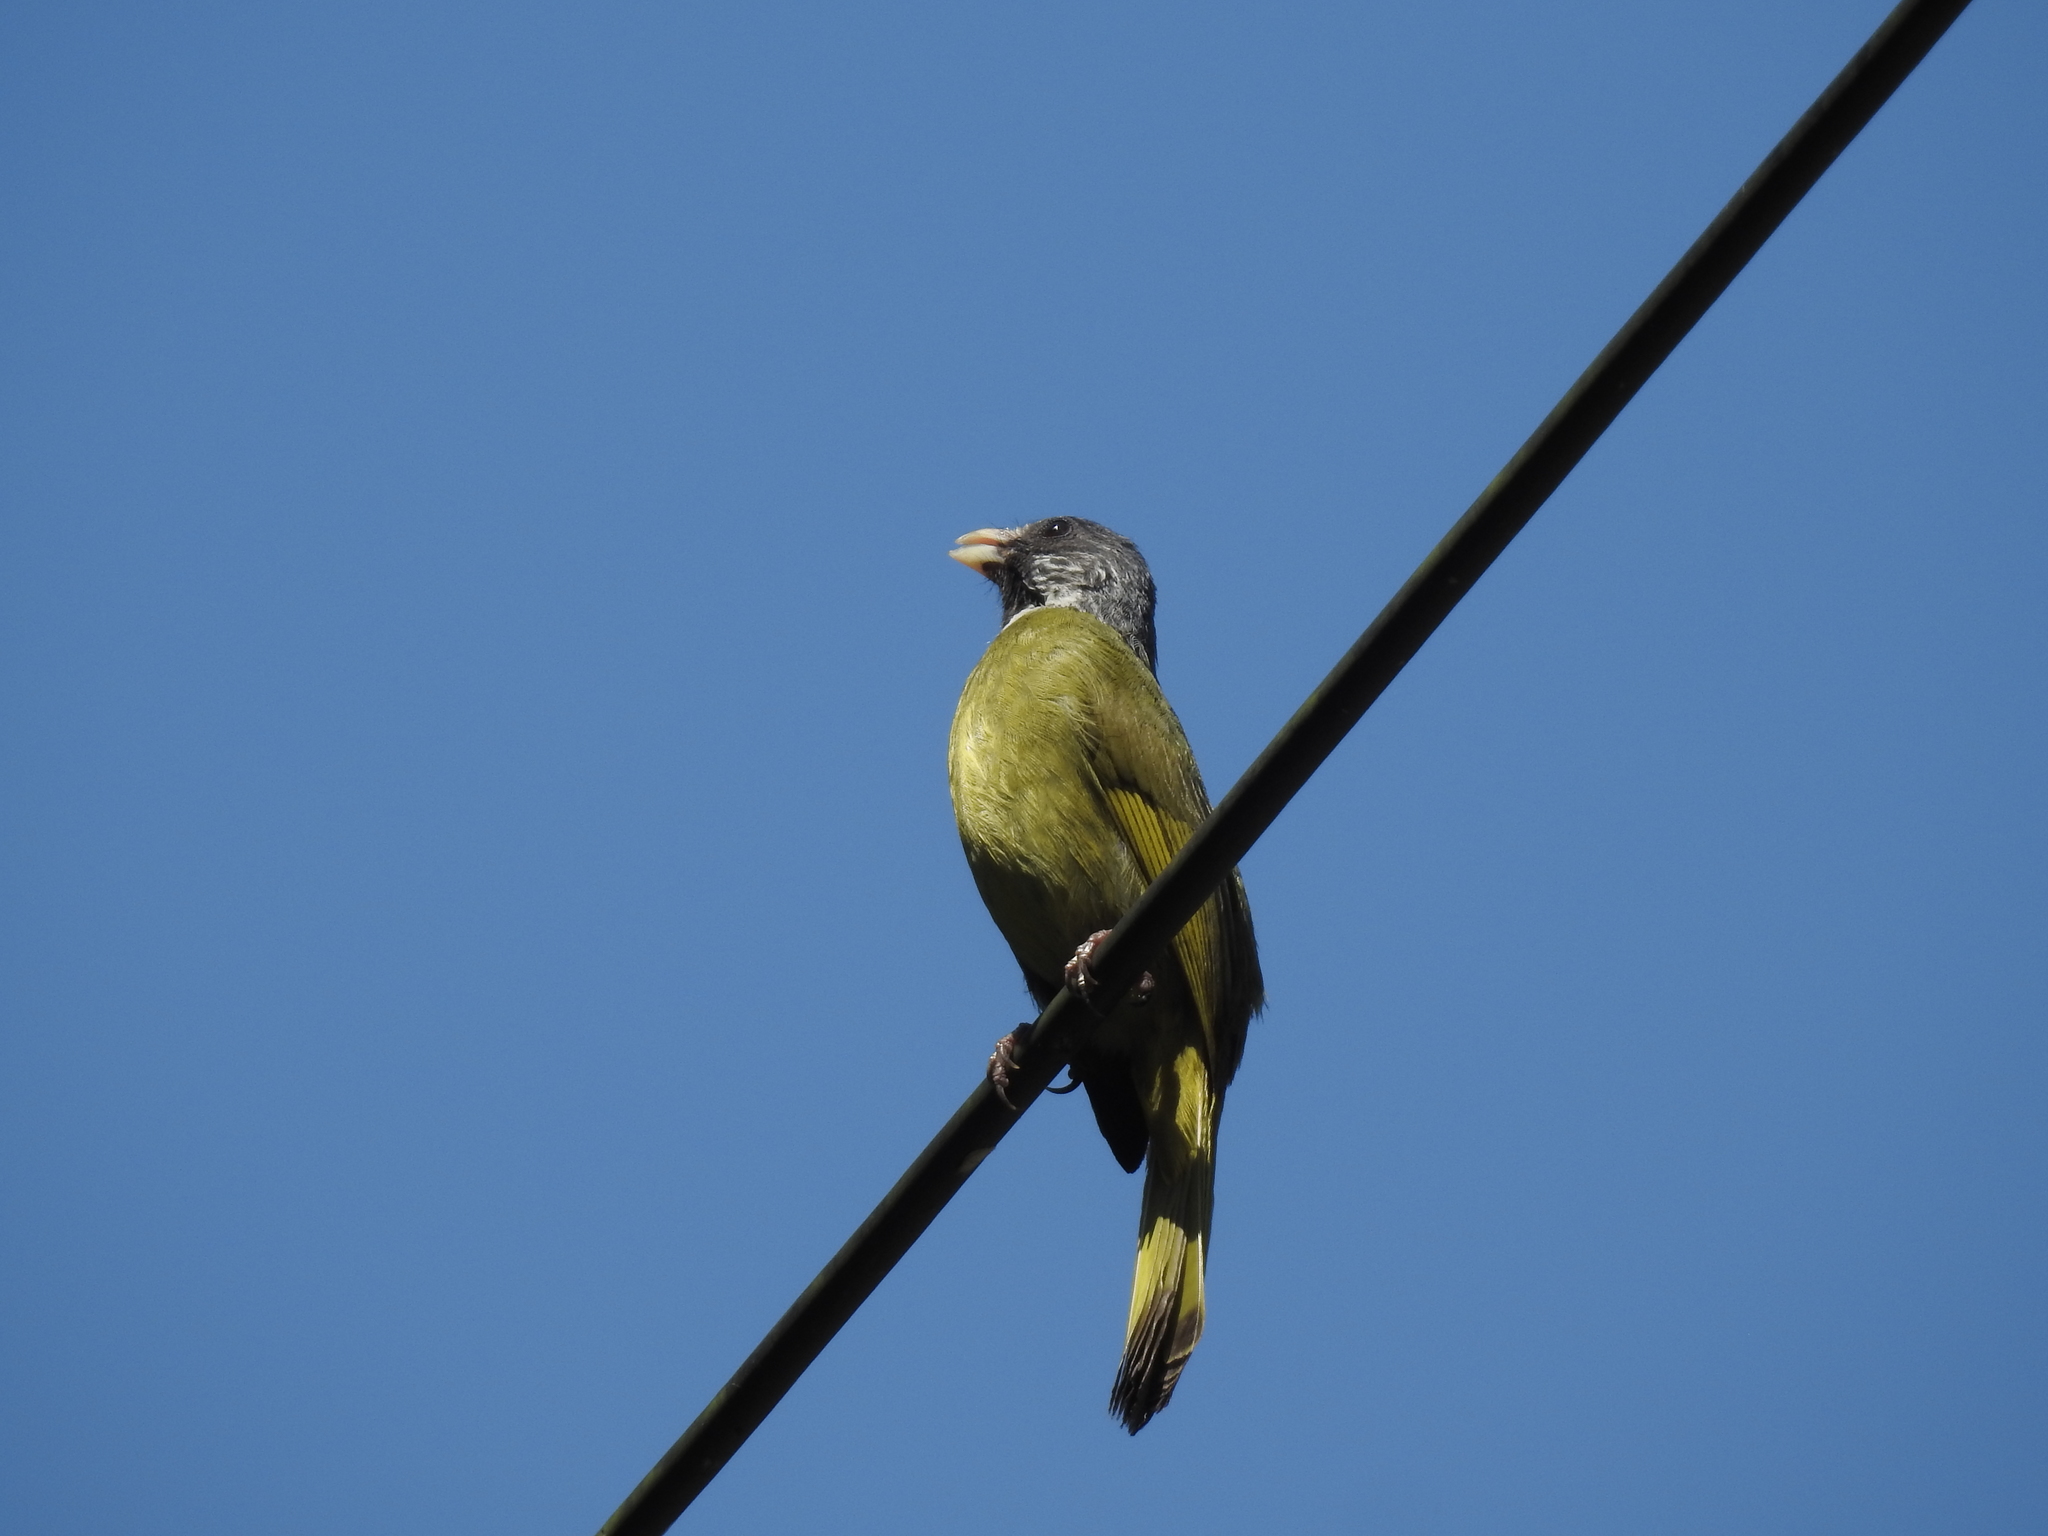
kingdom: Animalia
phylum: Chordata
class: Aves
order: Passeriformes
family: Pycnonotidae
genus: Spizixos
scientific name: Spizixos semitorques
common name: Collared finchbill
